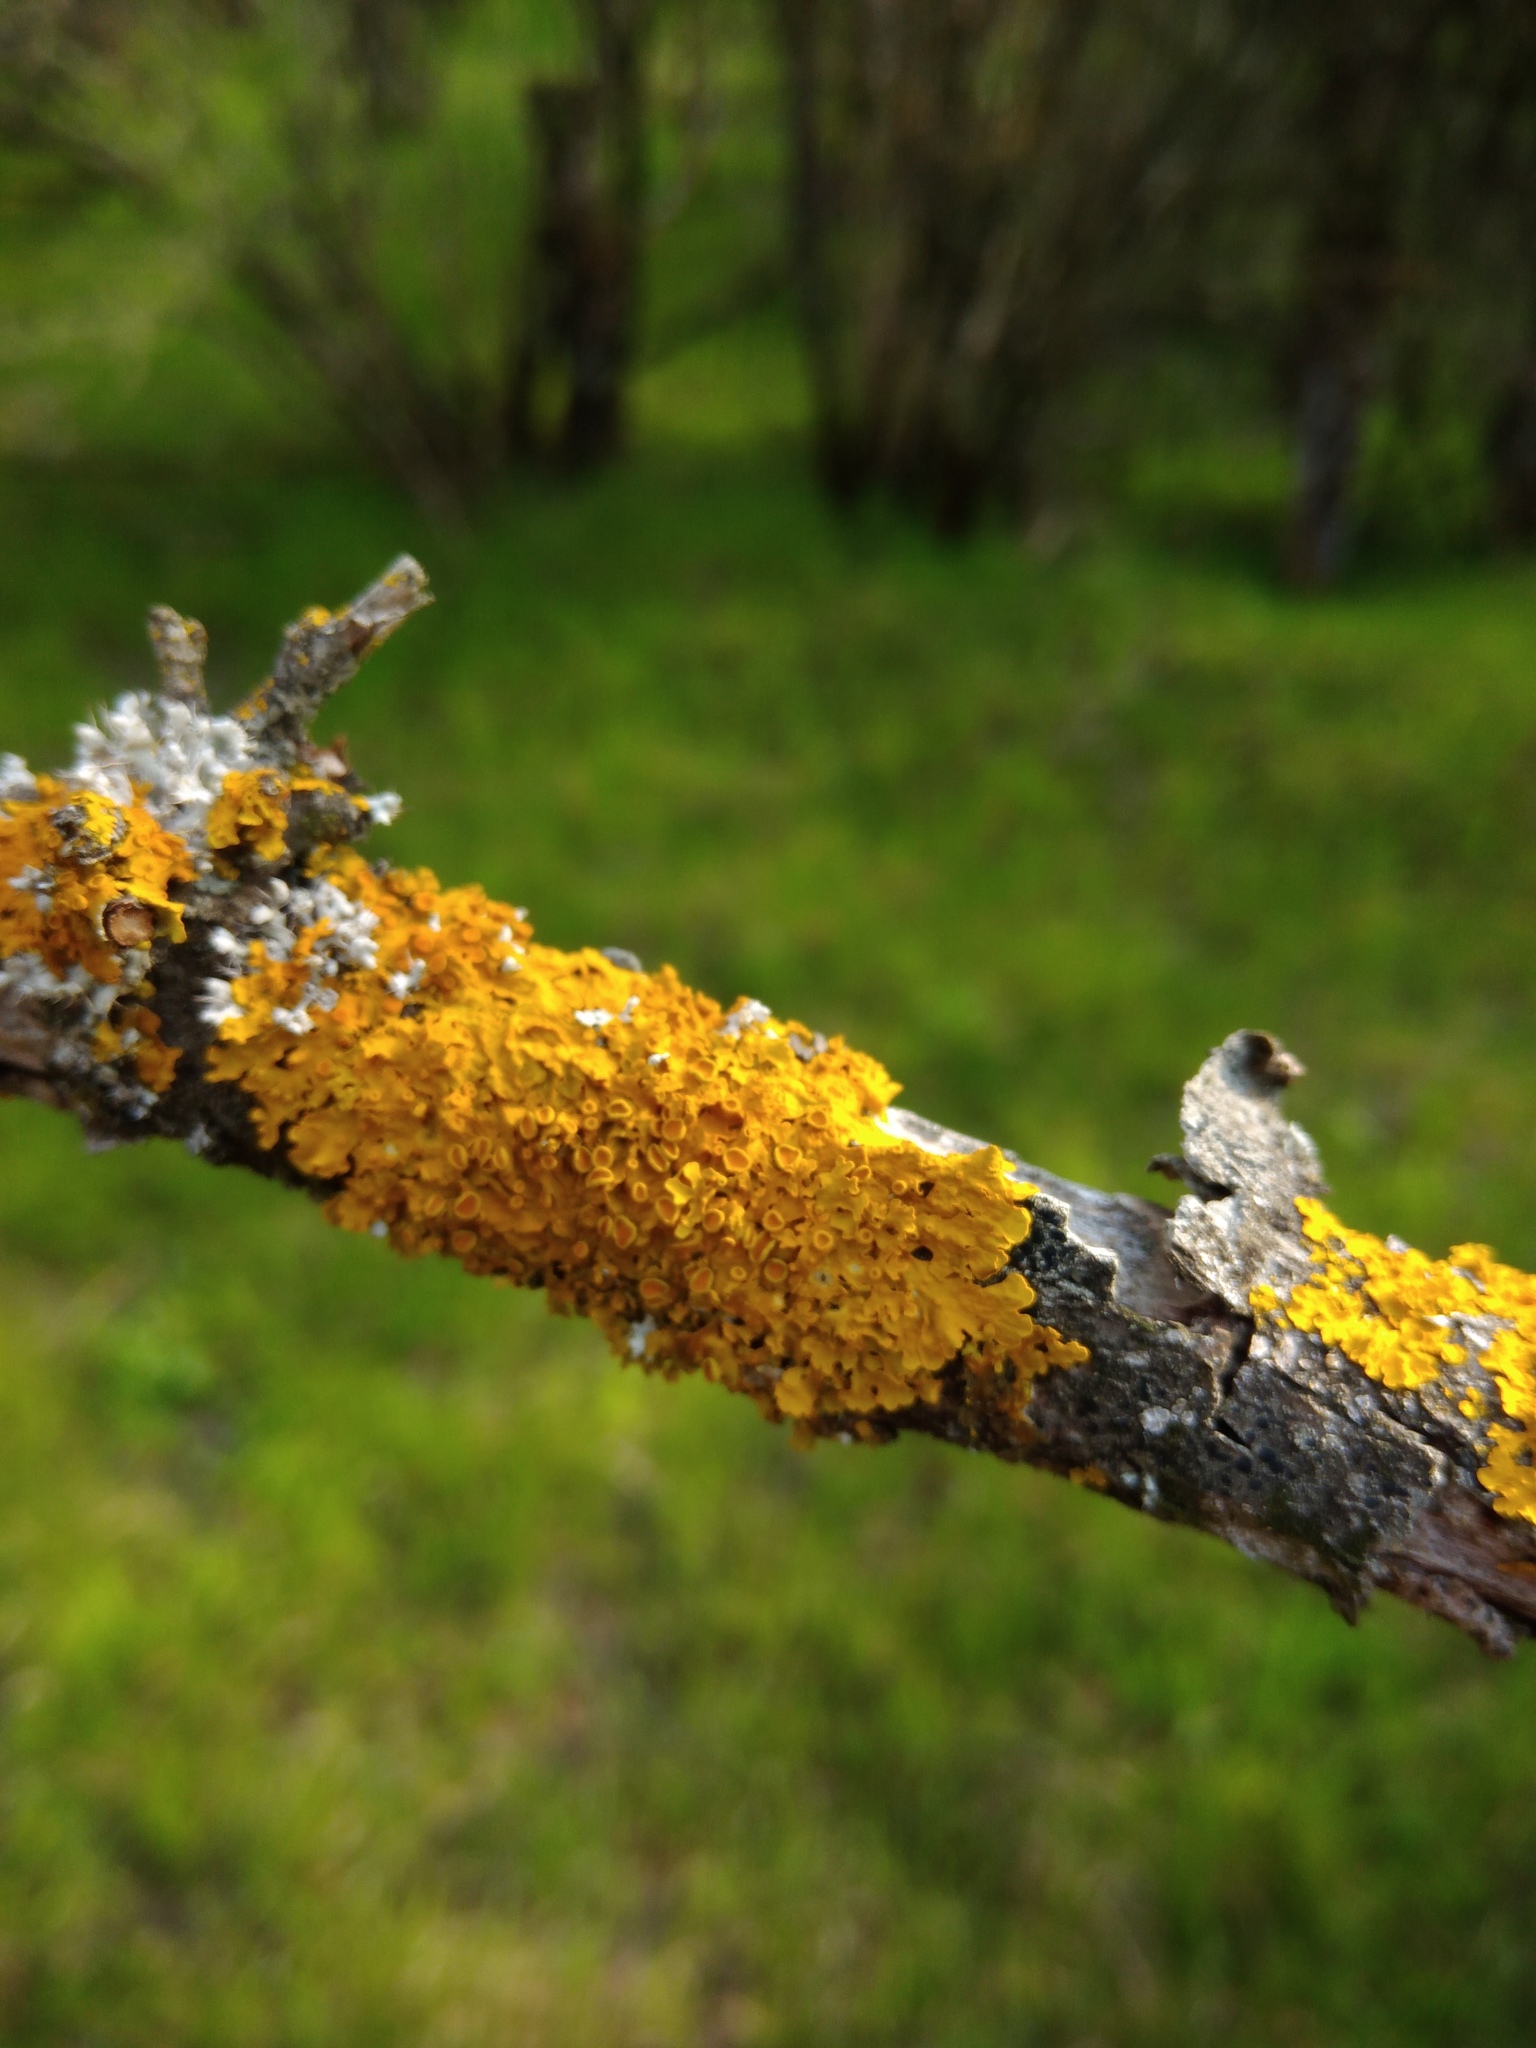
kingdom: Fungi
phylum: Ascomycota
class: Lecanoromycetes
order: Teloschistales
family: Teloschistaceae
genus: Xanthoria
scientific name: Xanthoria parietina
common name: Common orange lichen
